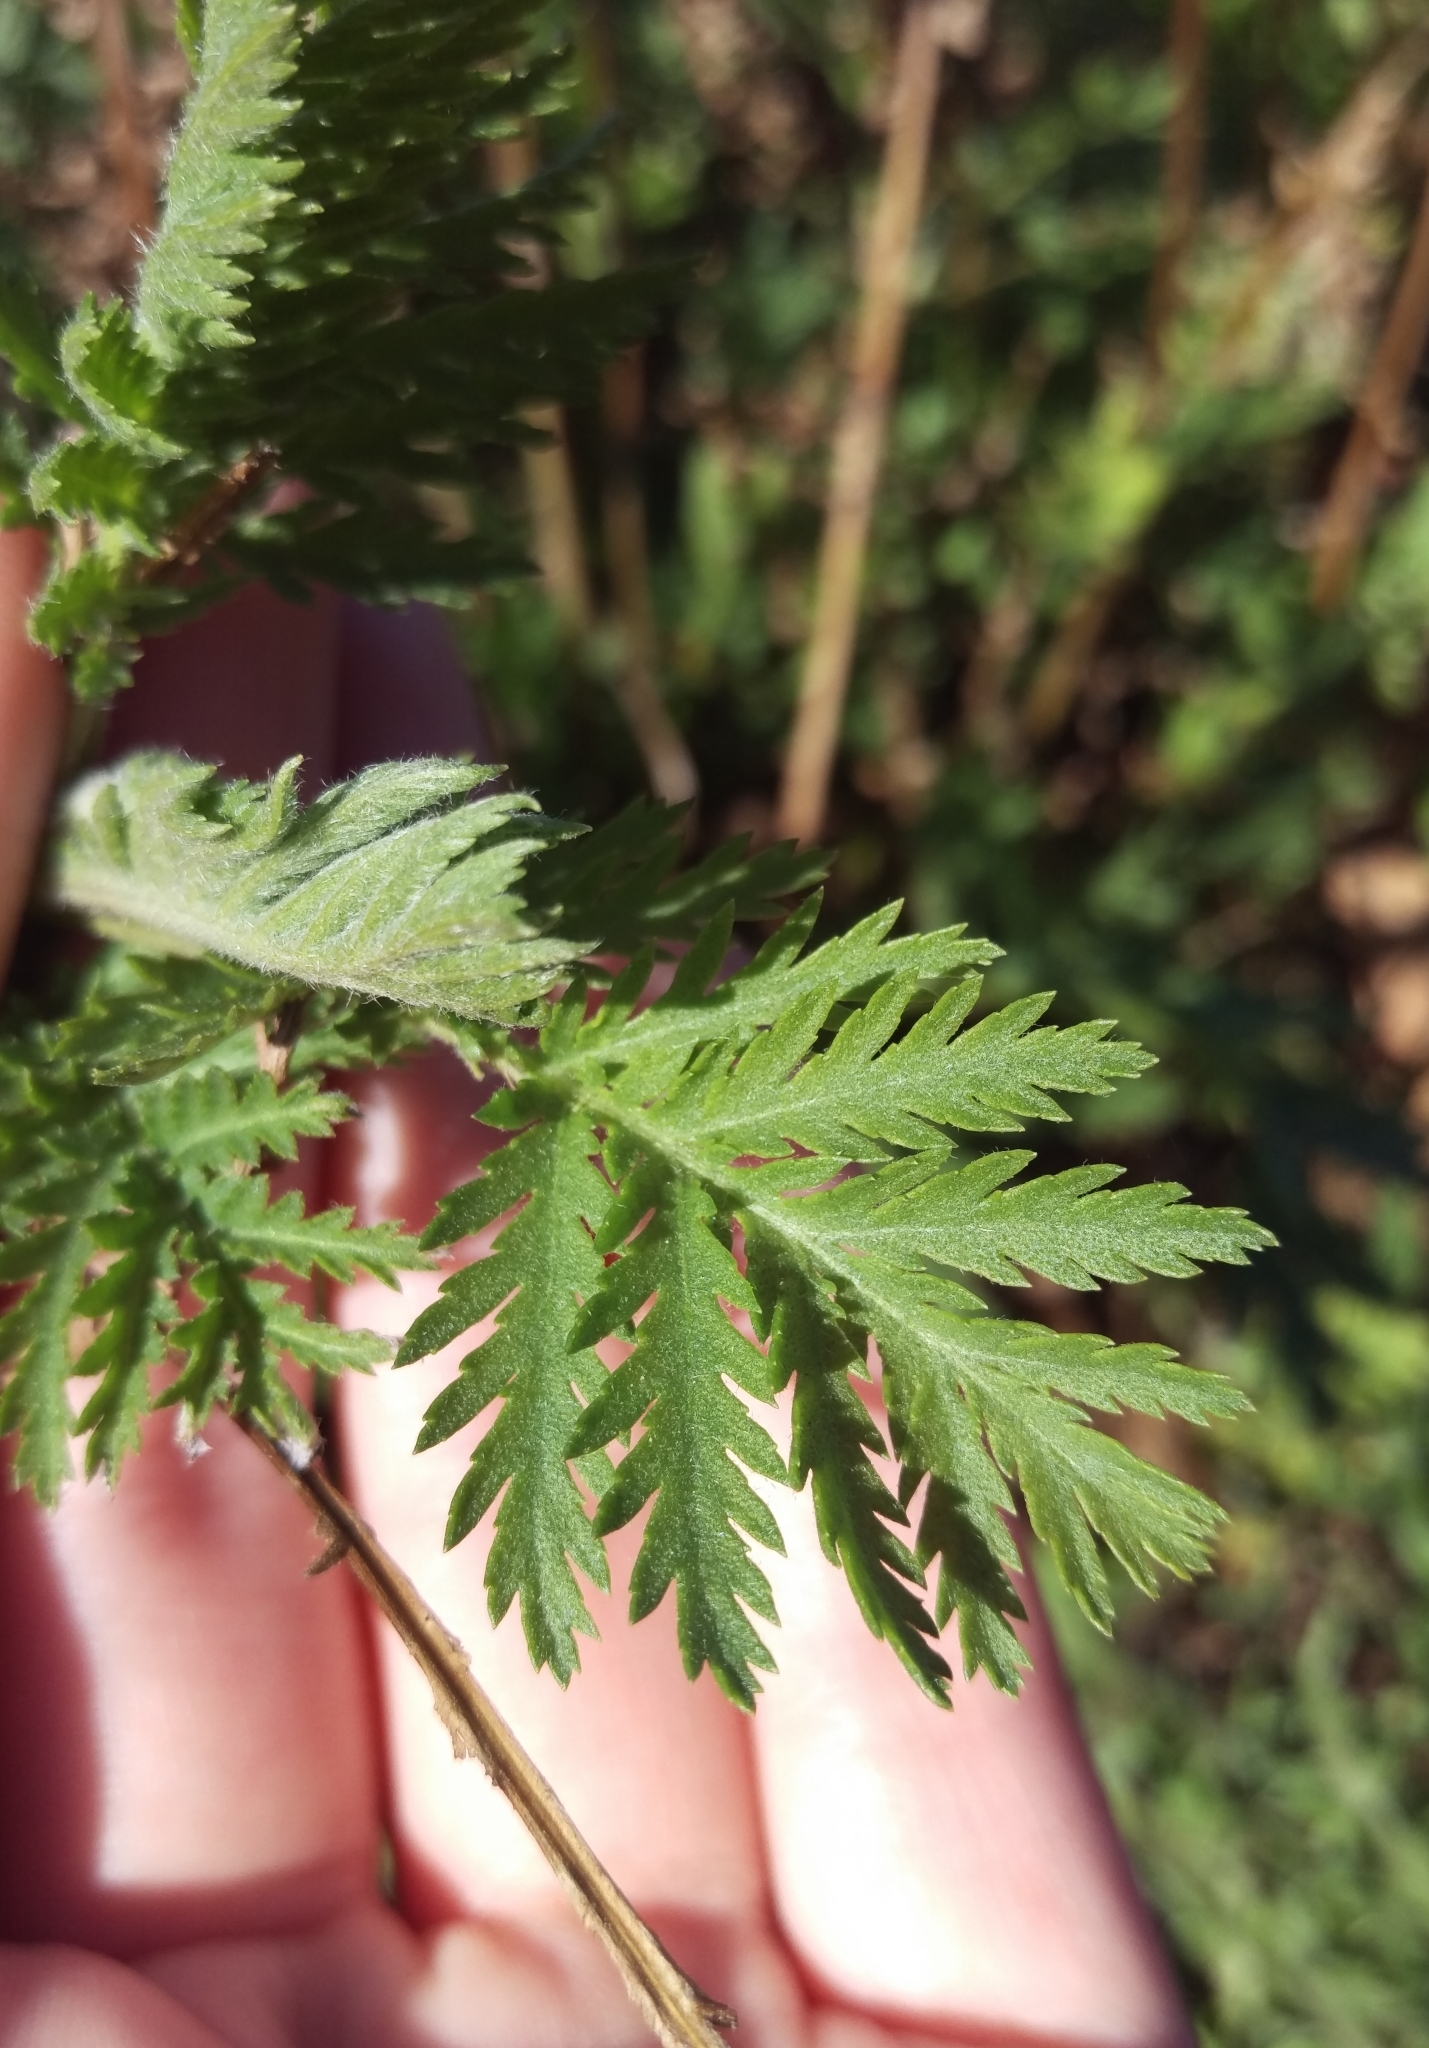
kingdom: Plantae
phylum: Tracheophyta
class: Magnoliopsida
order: Asterales
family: Asteraceae
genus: Tanacetum
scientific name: Tanacetum vulgare
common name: Common tansy
